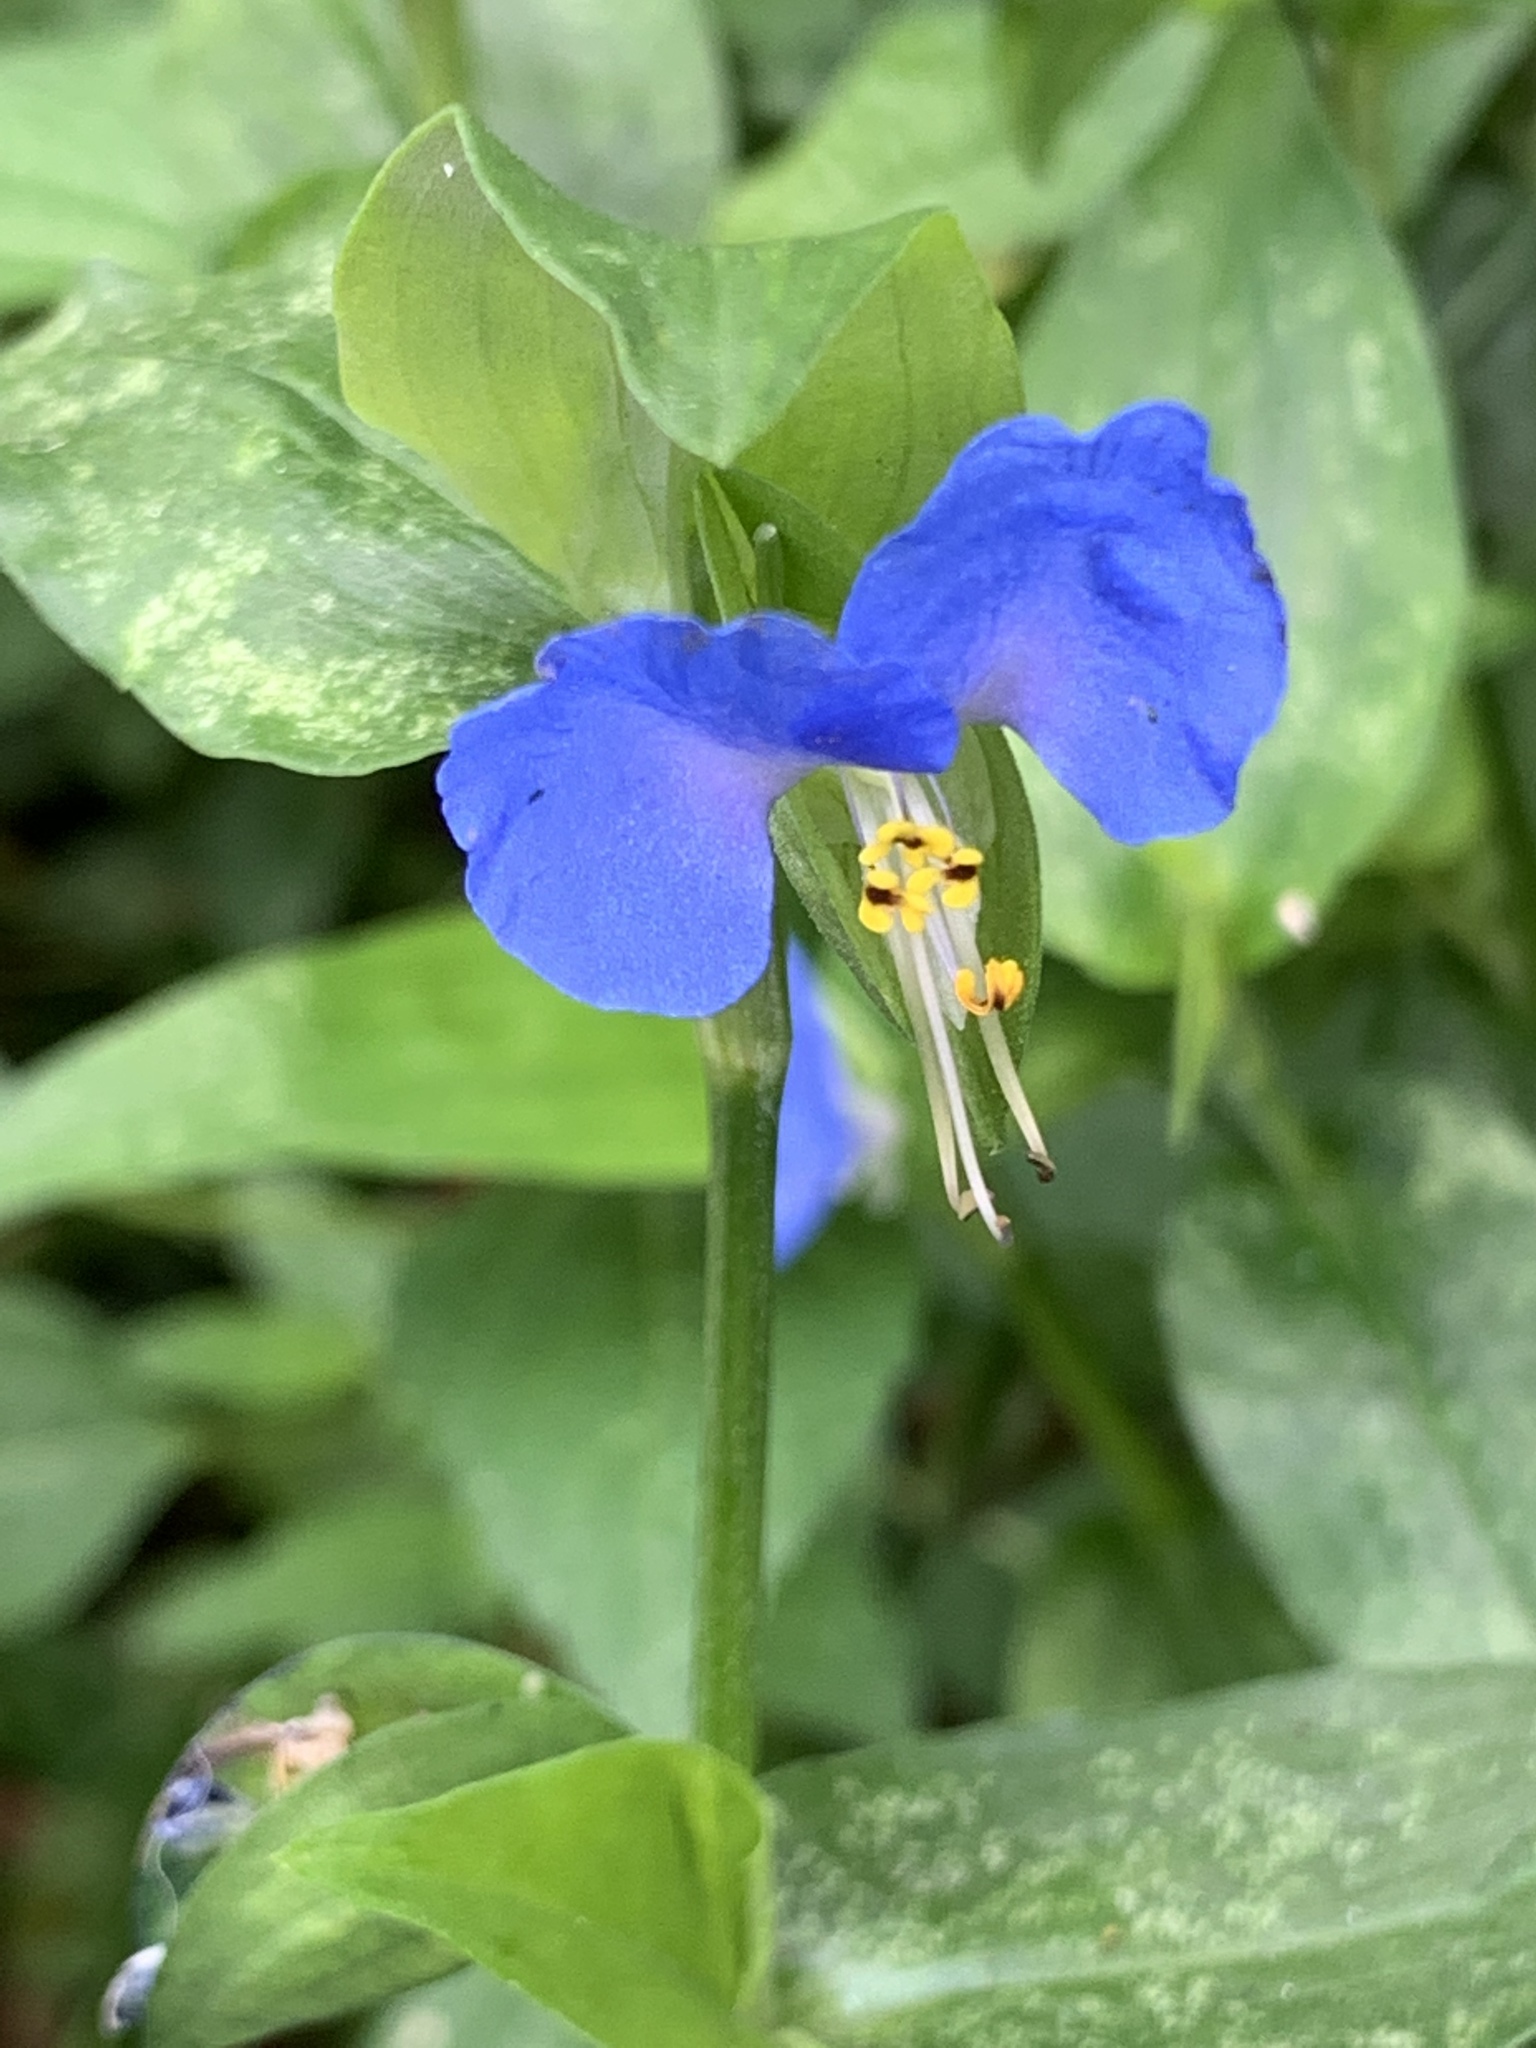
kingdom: Plantae
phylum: Tracheophyta
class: Liliopsida
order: Commelinales
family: Commelinaceae
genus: Commelina
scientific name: Commelina communis
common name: Asiatic dayflower
